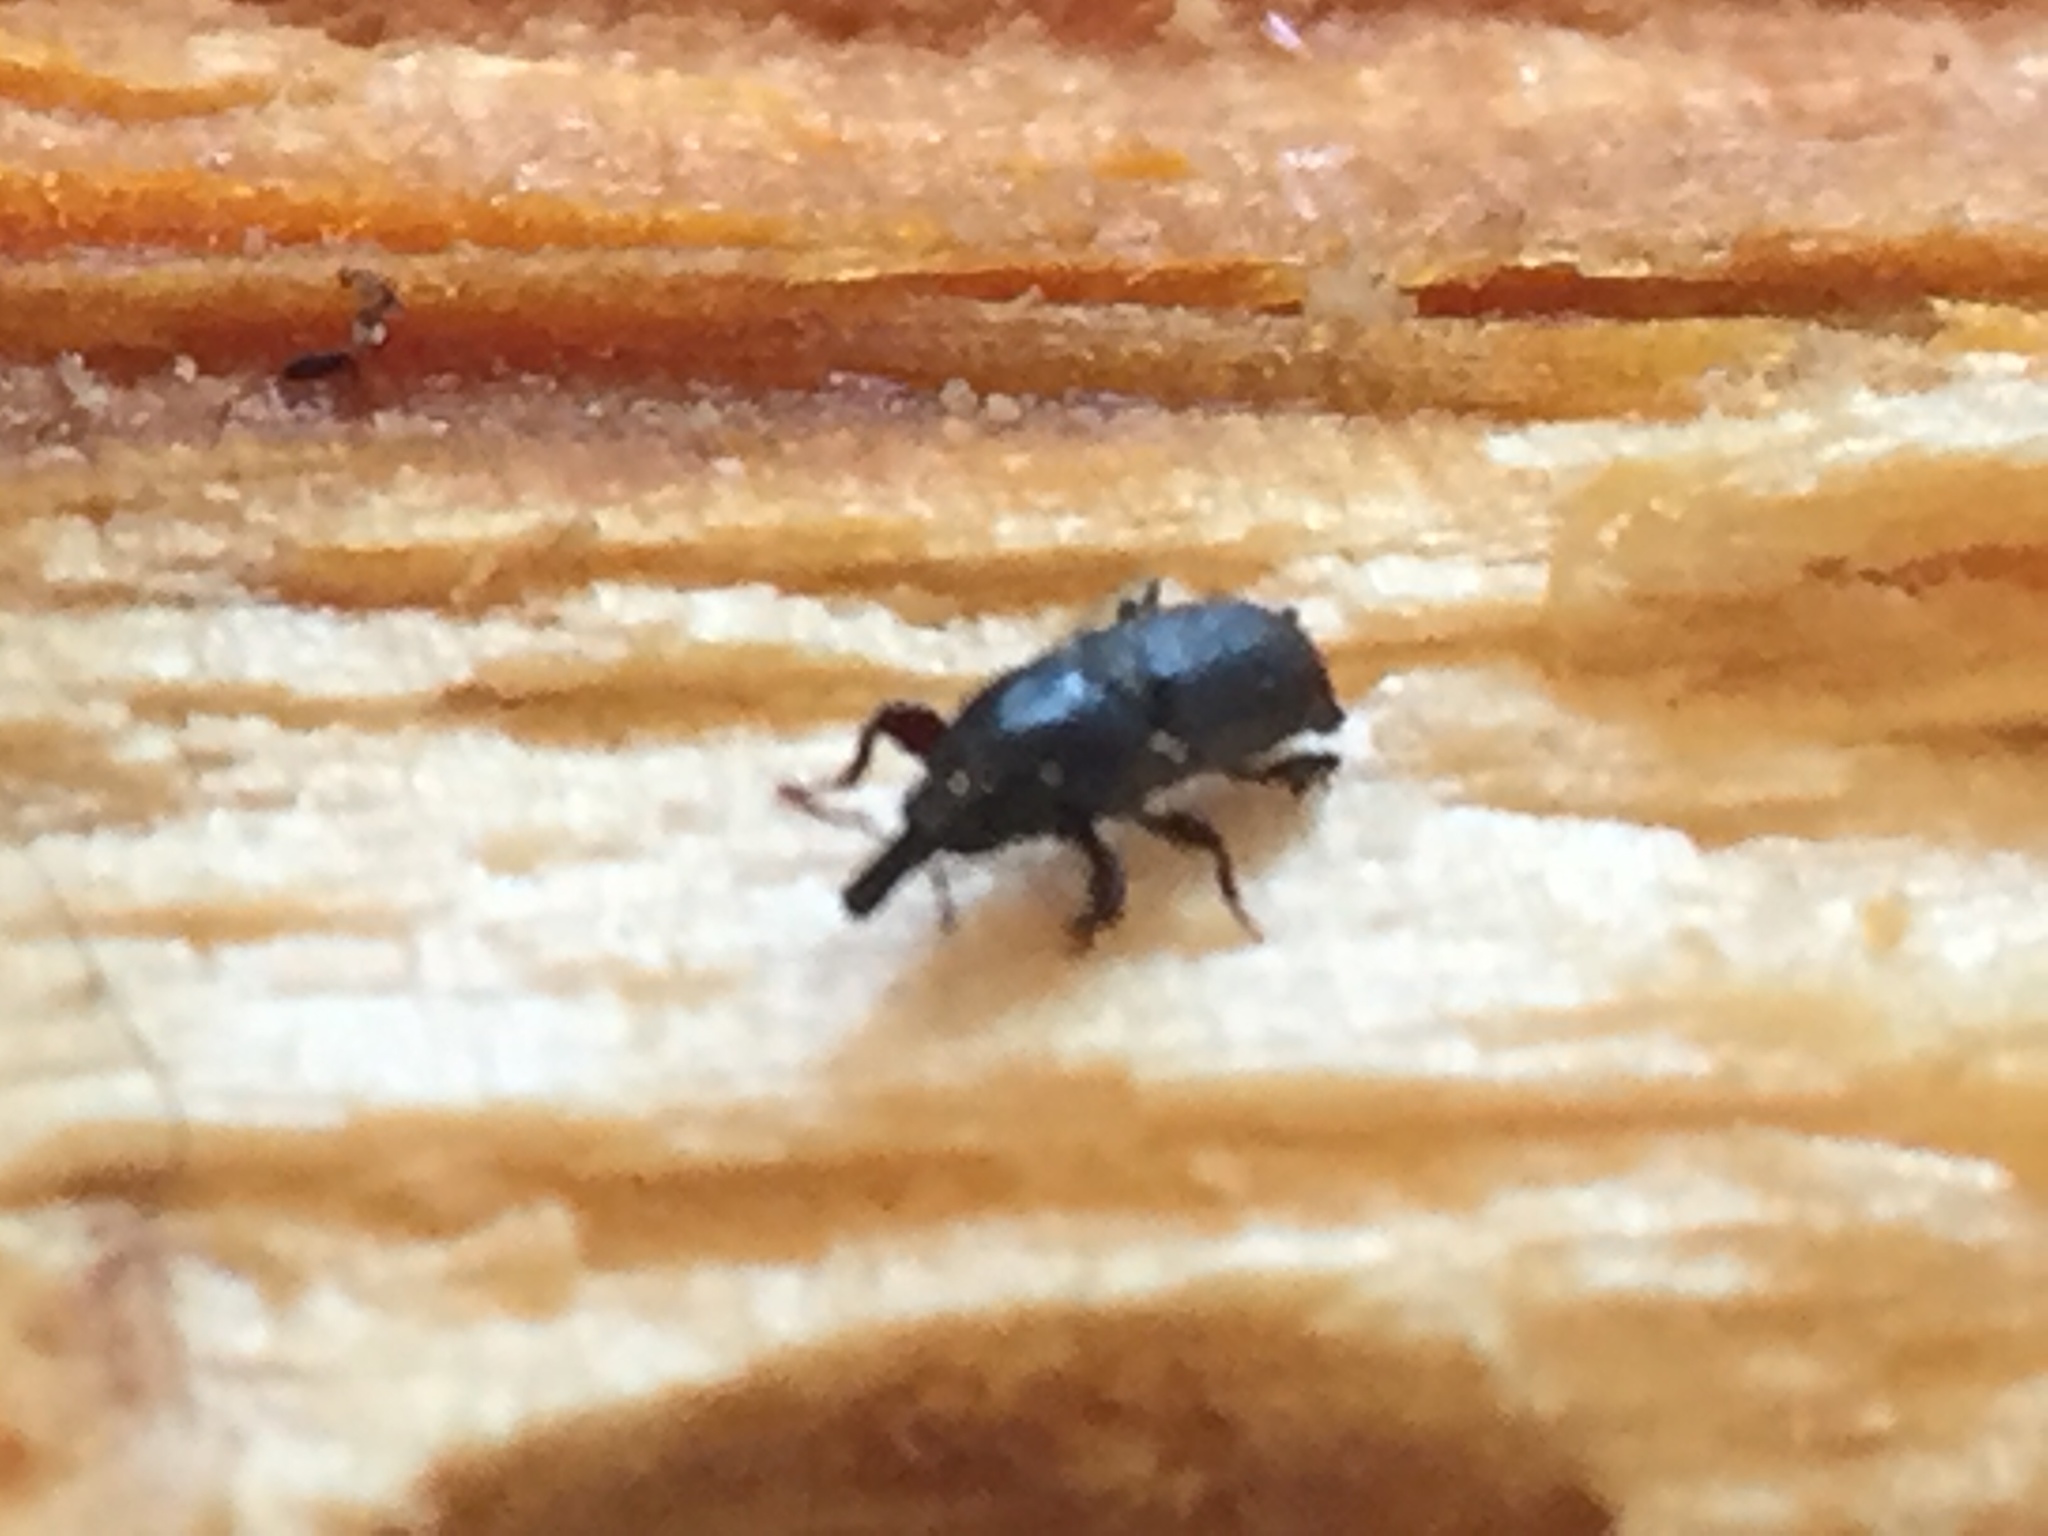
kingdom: Animalia
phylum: Arthropoda
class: Insecta
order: Coleoptera
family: Curculionidae
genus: Torostoma
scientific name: Torostoma apicale
